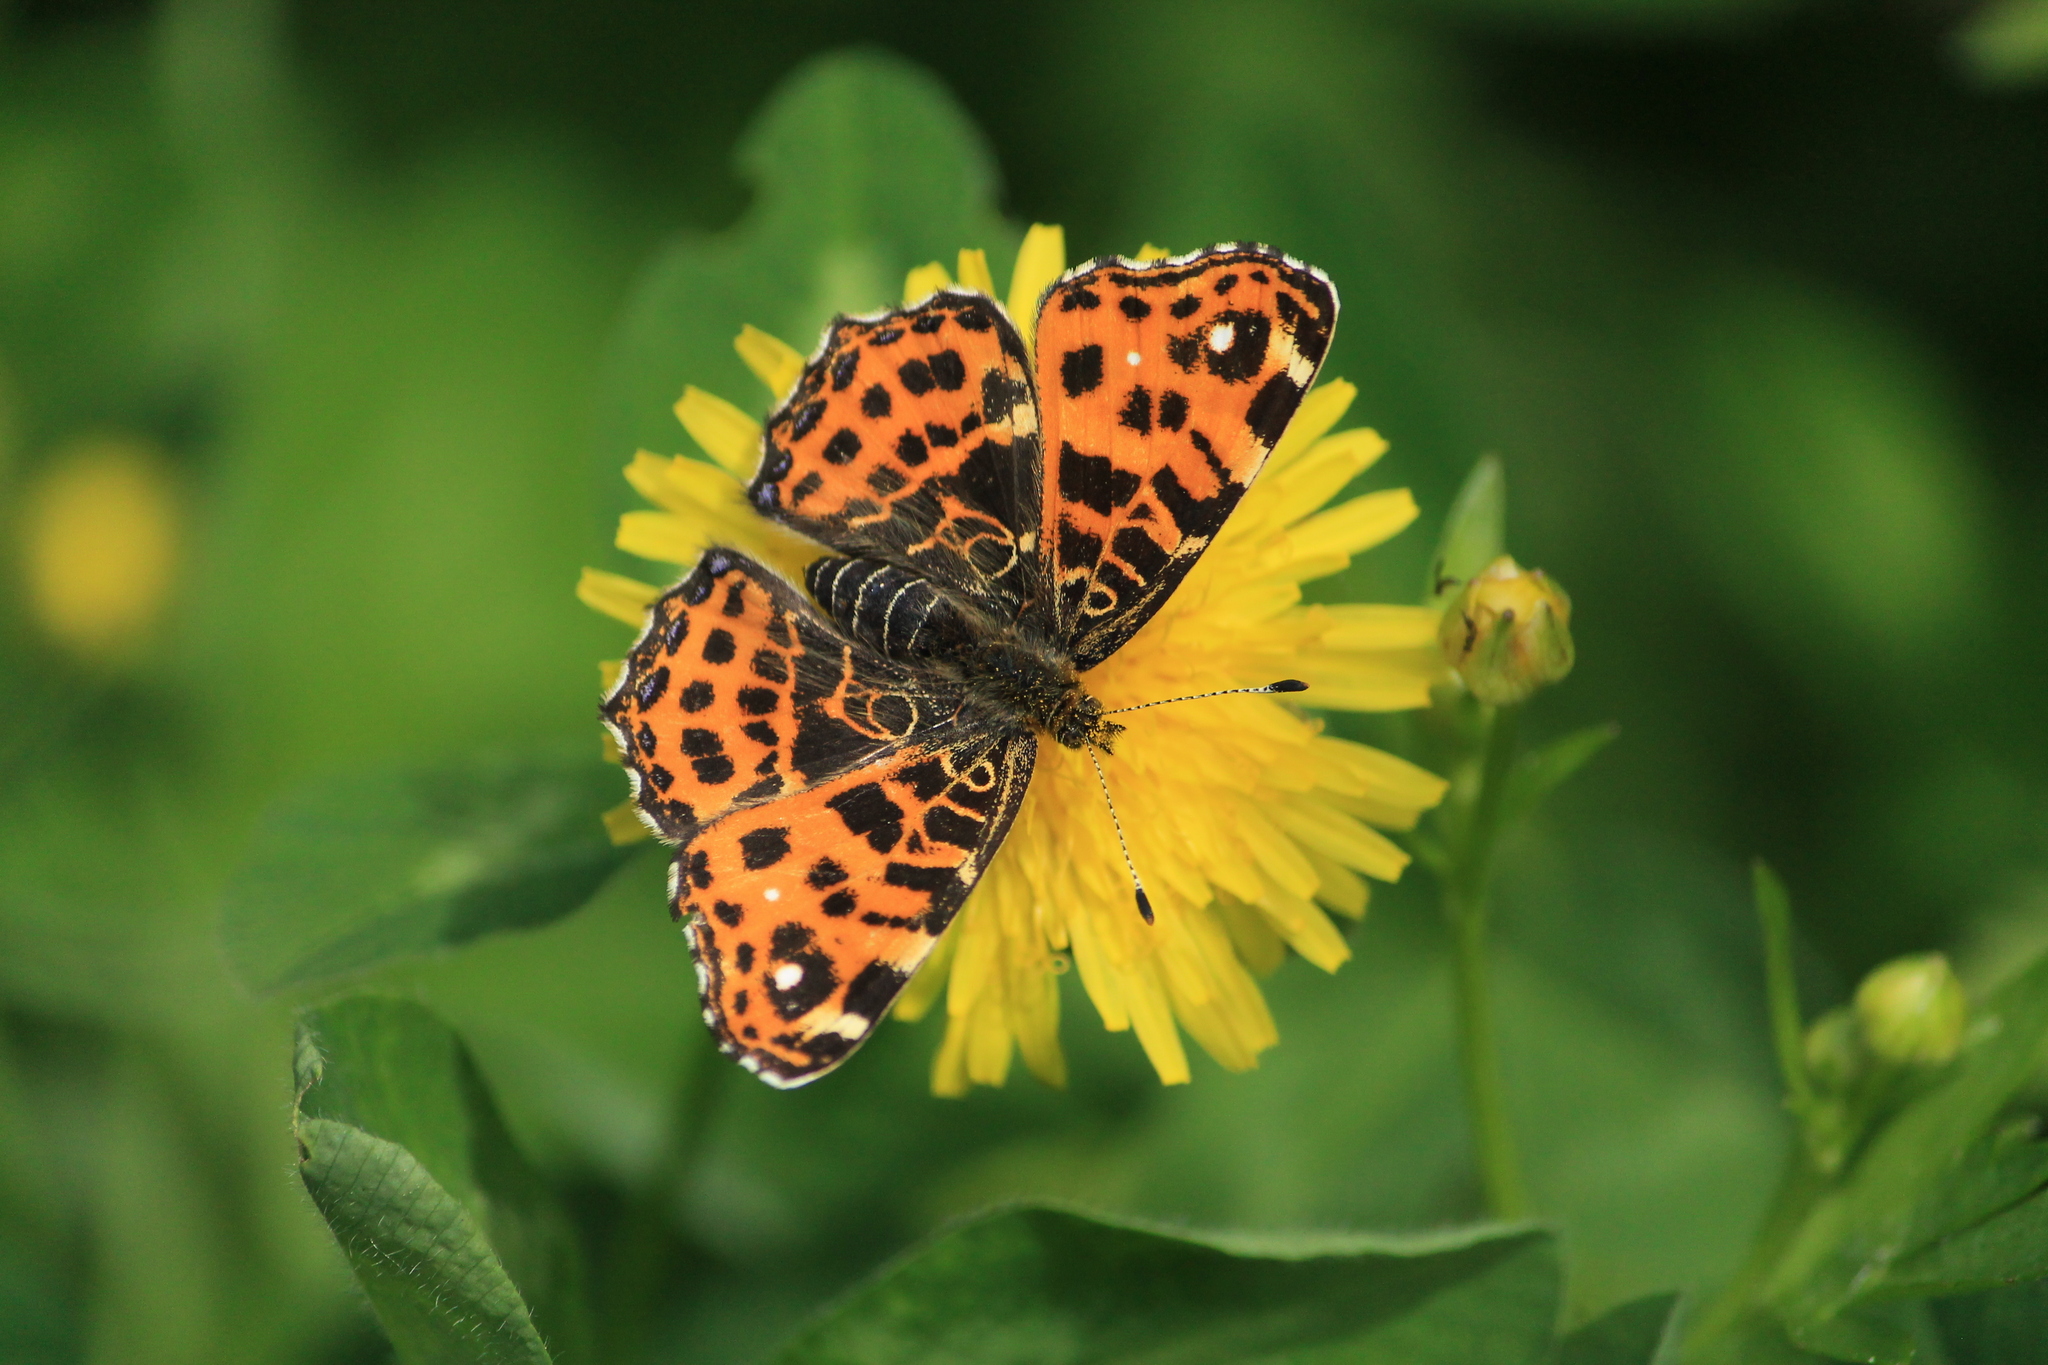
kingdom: Animalia
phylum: Arthropoda
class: Insecta
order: Lepidoptera
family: Nymphalidae
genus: Araschnia
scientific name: Araschnia levana
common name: Map butterfly
